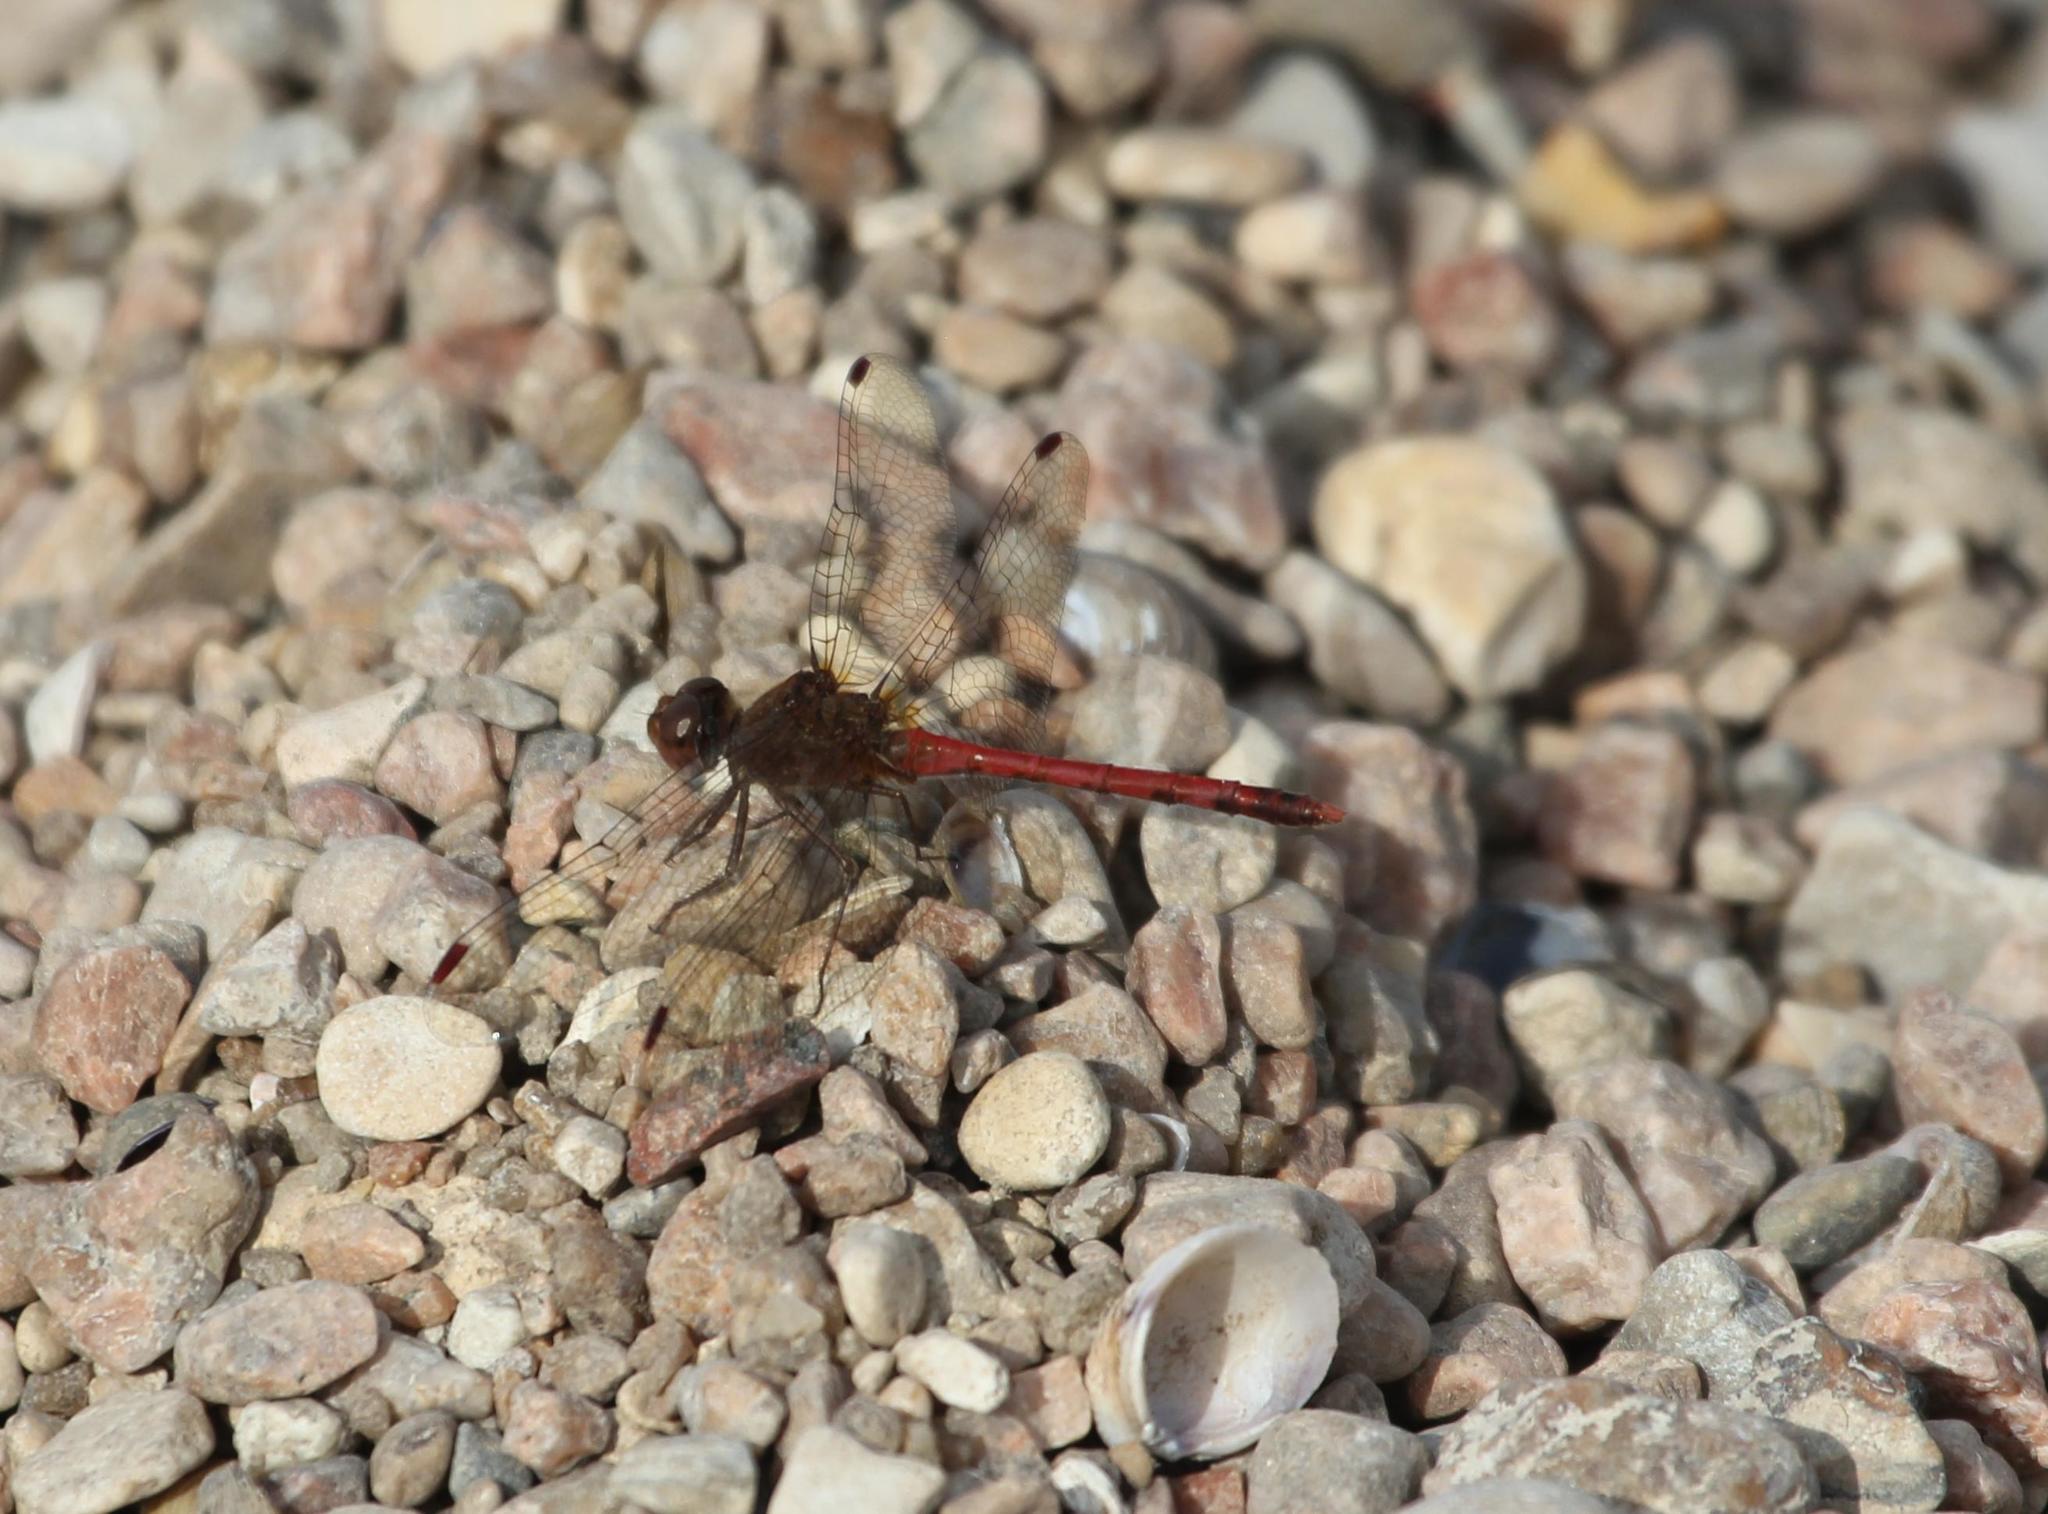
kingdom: Animalia
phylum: Arthropoda
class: Insecta
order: Odonata
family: Libellulidae
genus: Sympetrum
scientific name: Sympetrum vicinum
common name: Autumn meadowhawk
